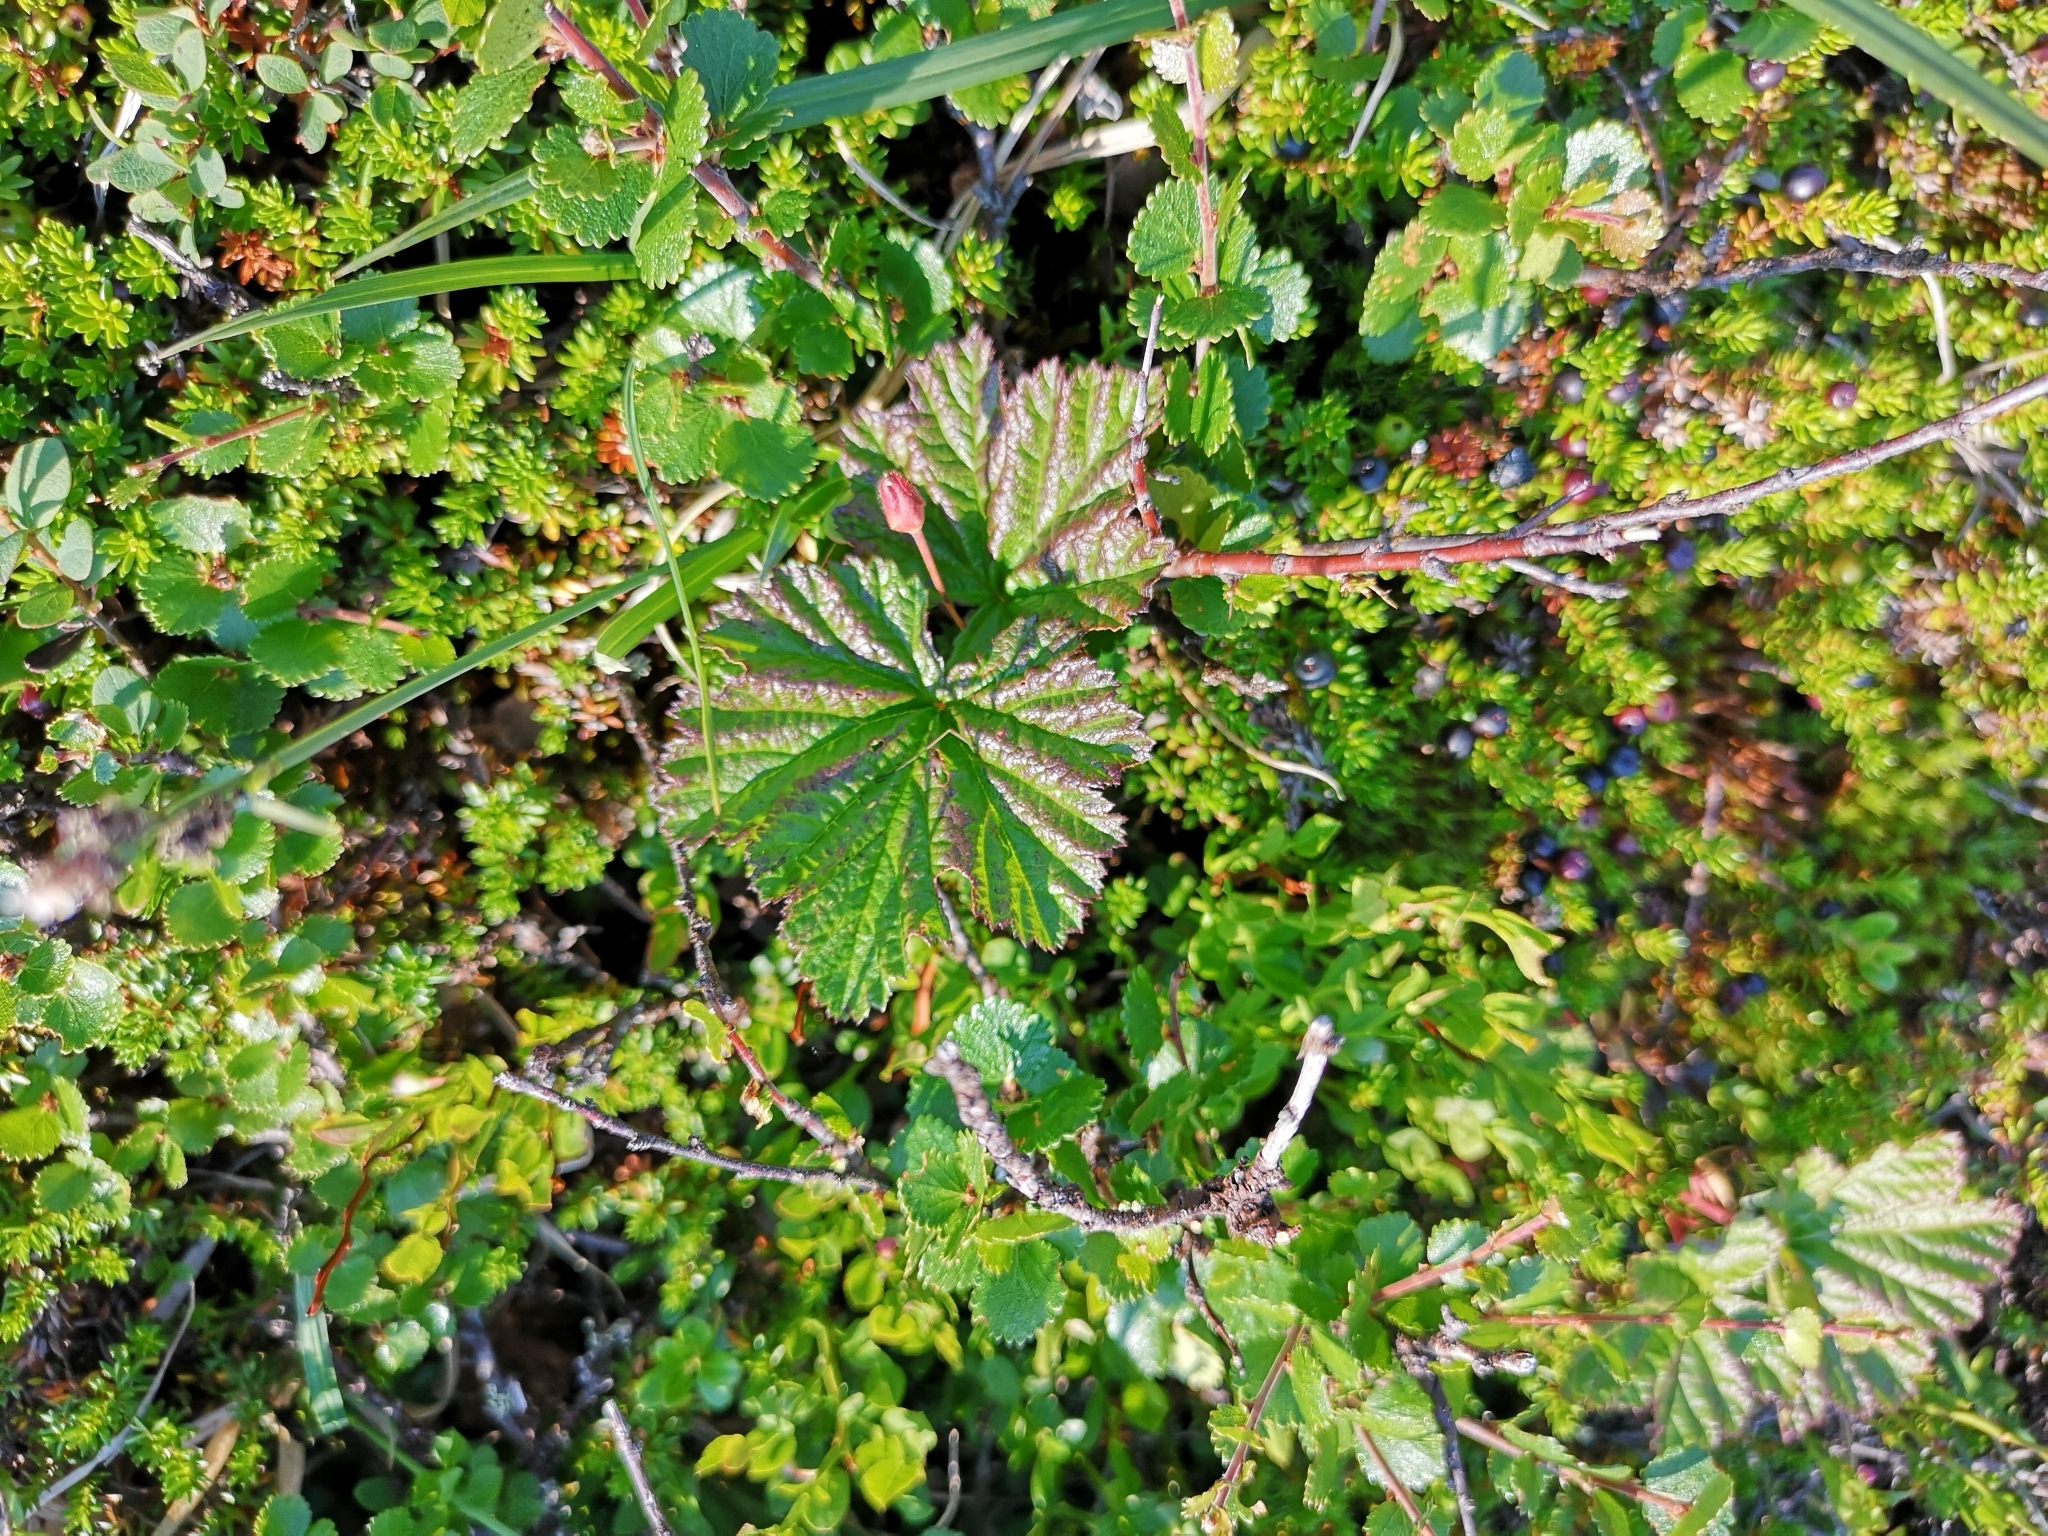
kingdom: Plantae
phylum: Tracheophyta
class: Magnoliopsida
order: Rosales
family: Rosaceae
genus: Rubus
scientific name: Rubus chamaemorus
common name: Cloudberry
